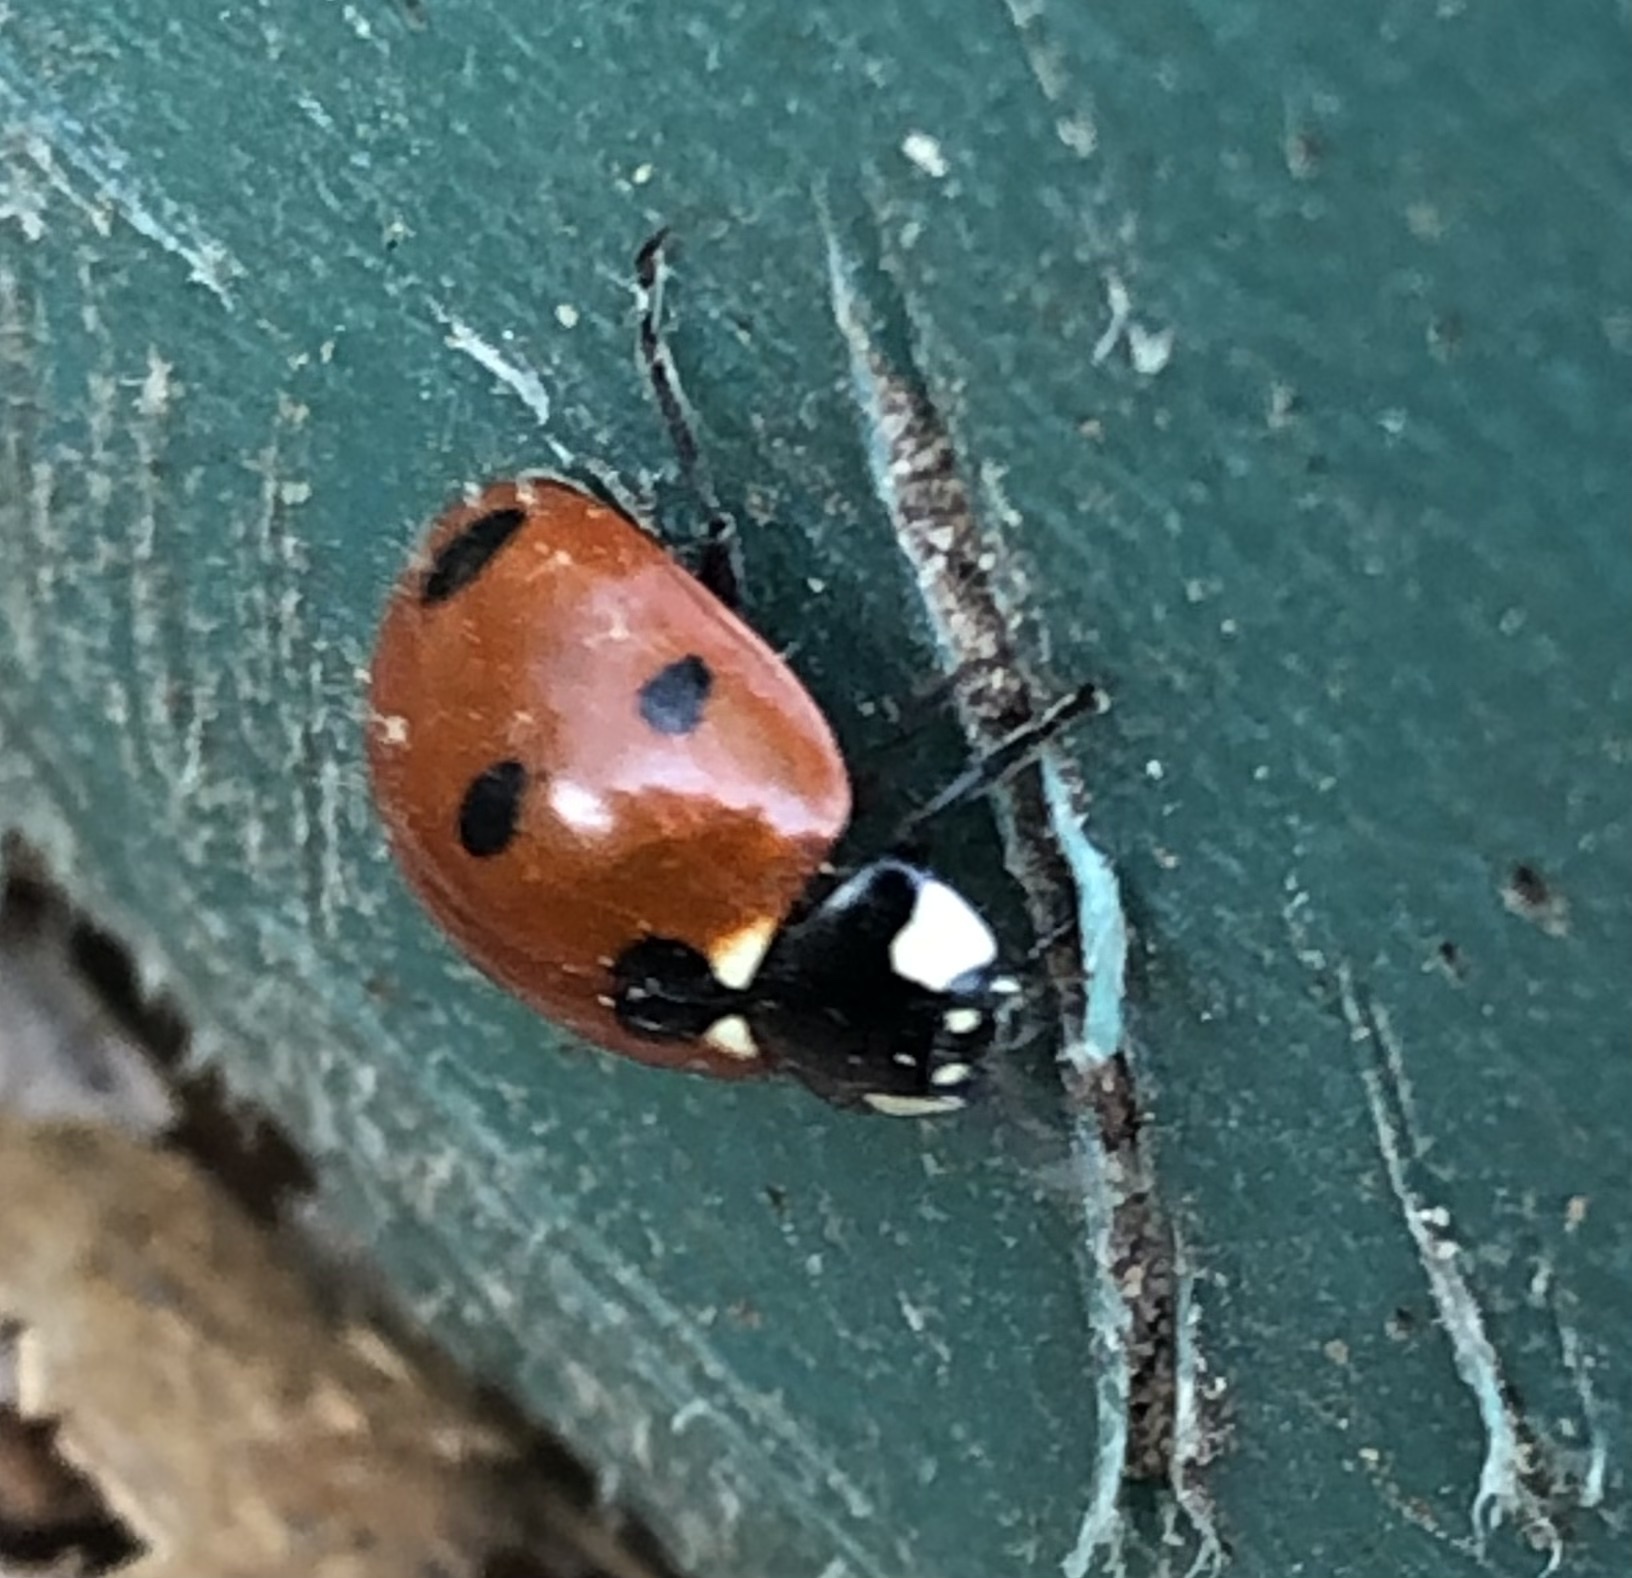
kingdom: Animalia
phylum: Arthropoda
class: Insecta
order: Coleoptera
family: Coccinellidae
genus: Coccinella
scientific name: Coccinella septempunctata
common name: Sevenspotted lady beetle
